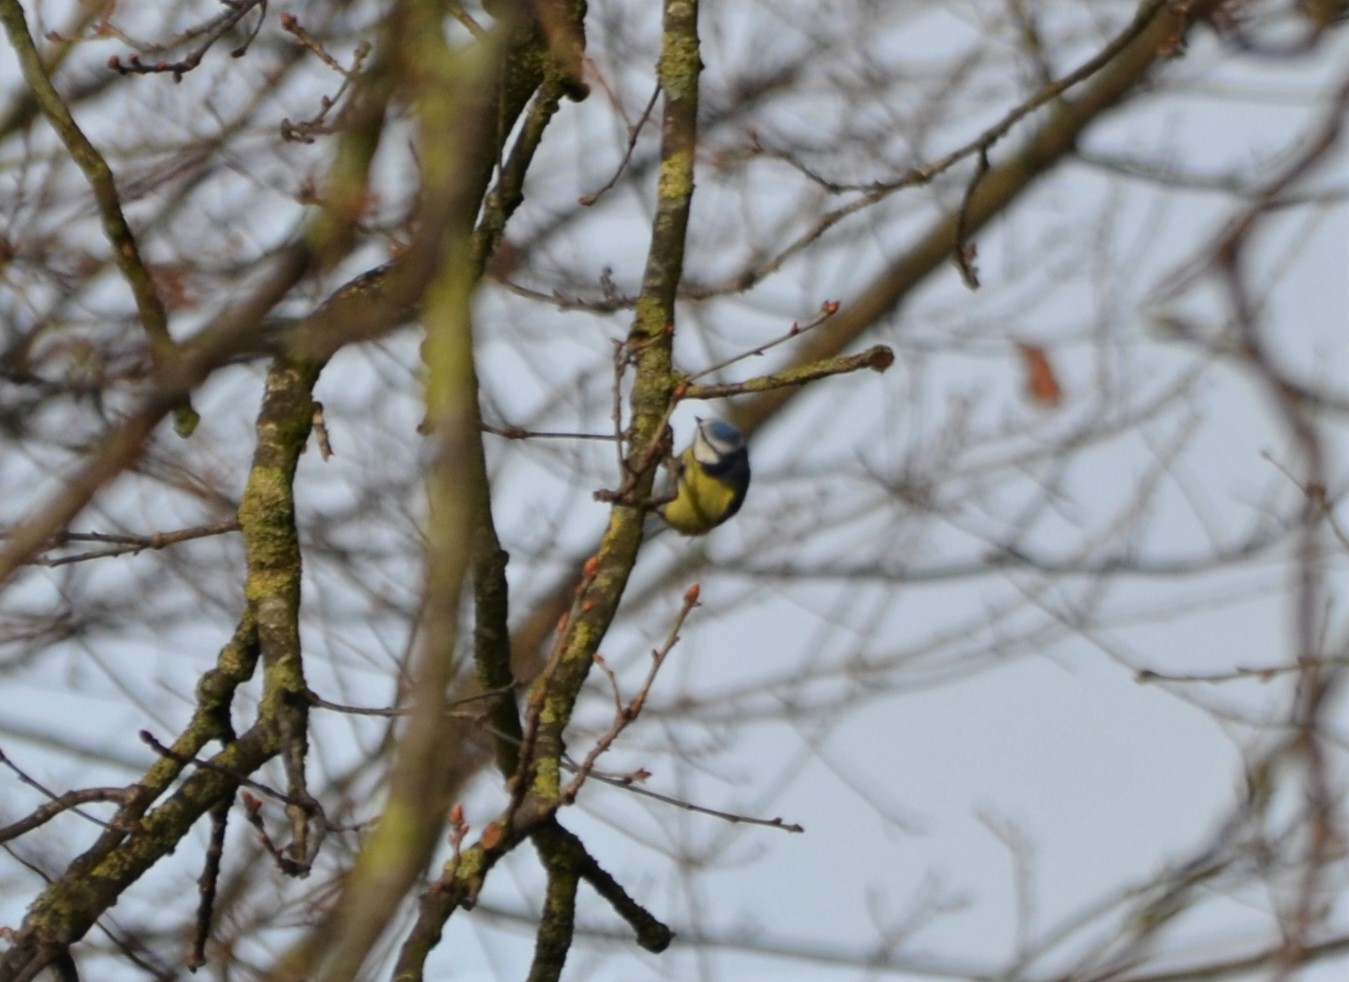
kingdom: Animalia
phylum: Chordata
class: Aves
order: Passeriformes
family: Paridae
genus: Cyanistes
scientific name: Cyanistes caeruleus
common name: Eurasian blue tit
